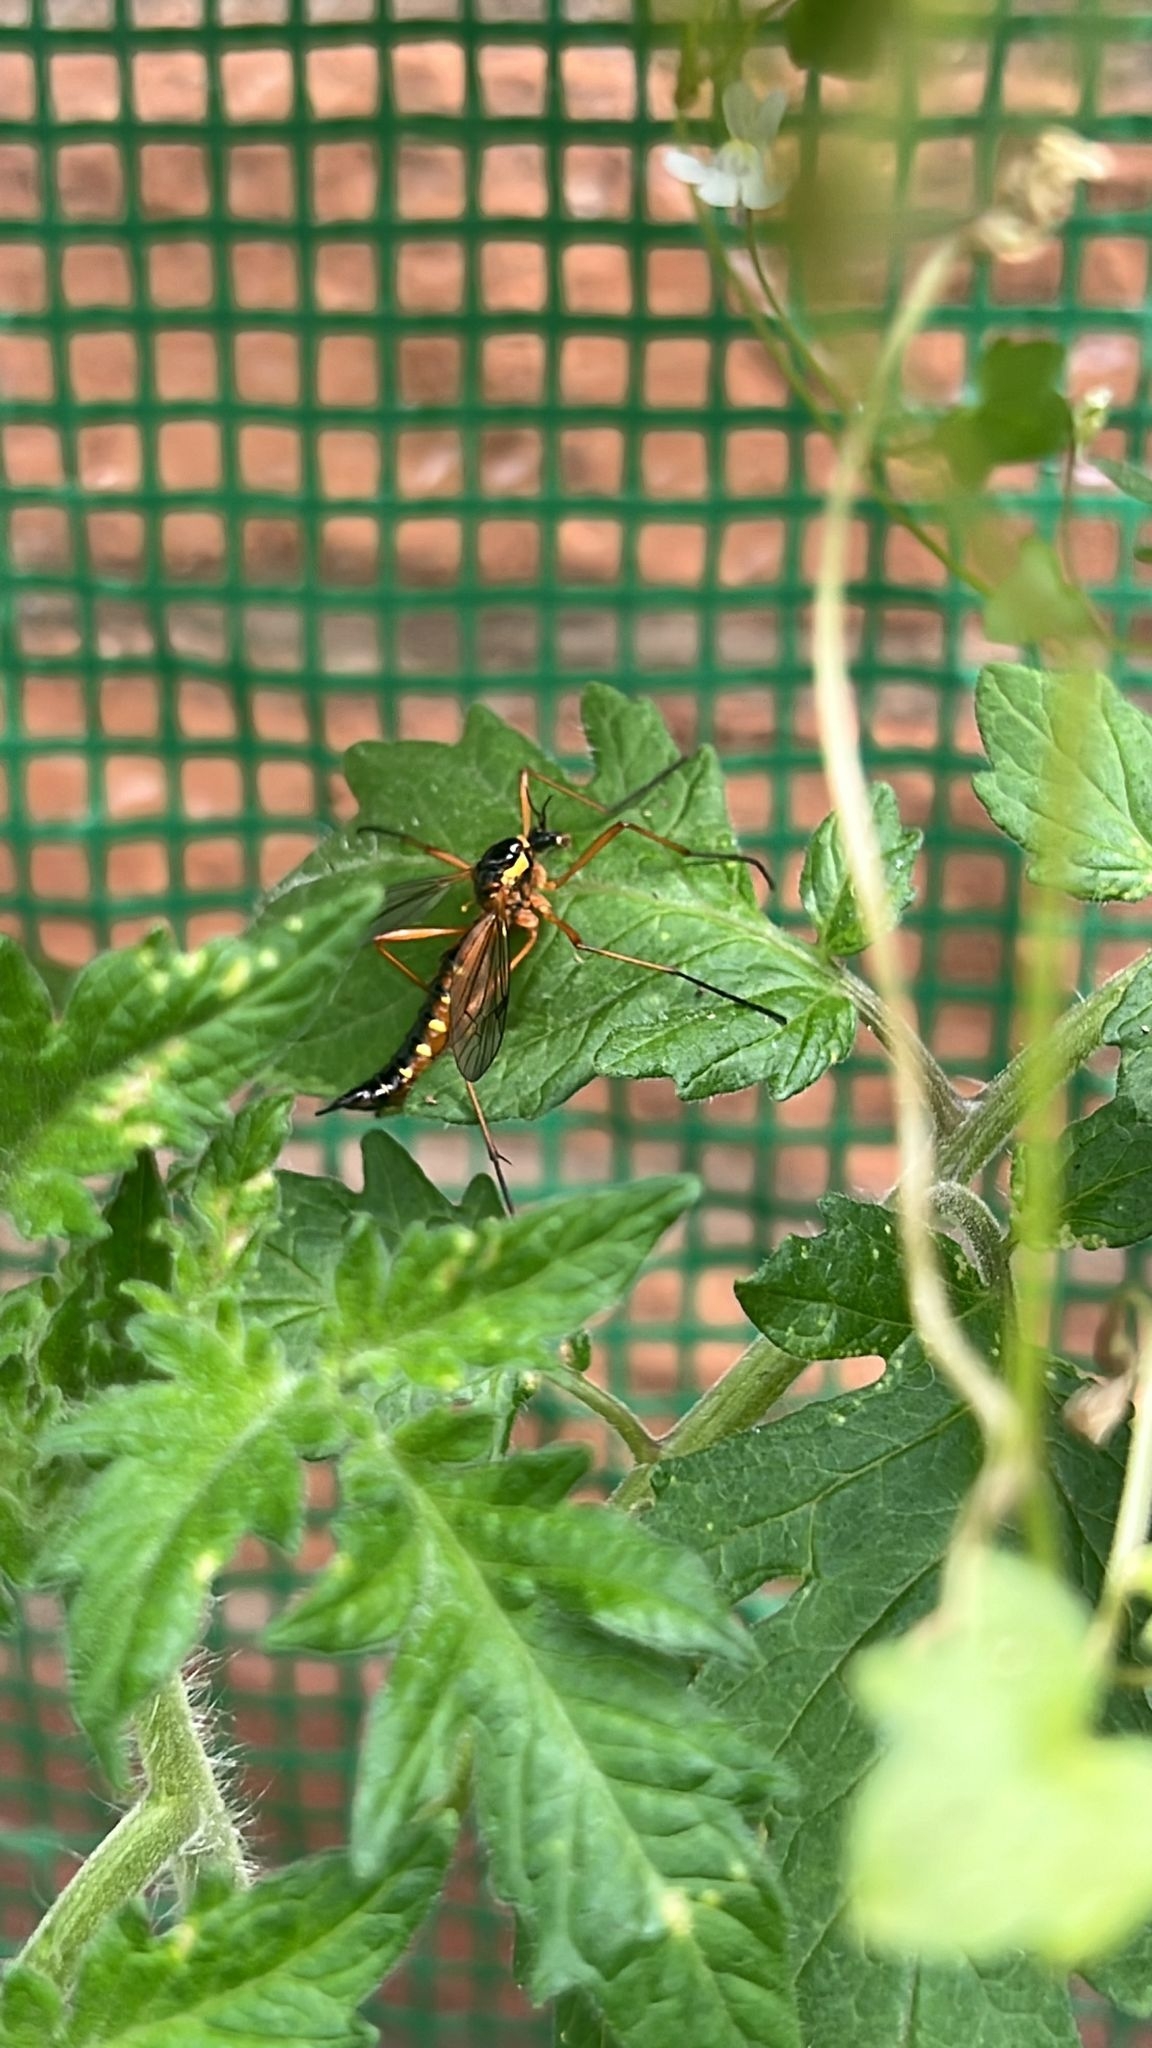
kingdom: Animalia
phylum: Arthropoda
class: Insecta
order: Diptera
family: Tipulidae
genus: Ctenophora
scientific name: Ctenophora pectinicornis
